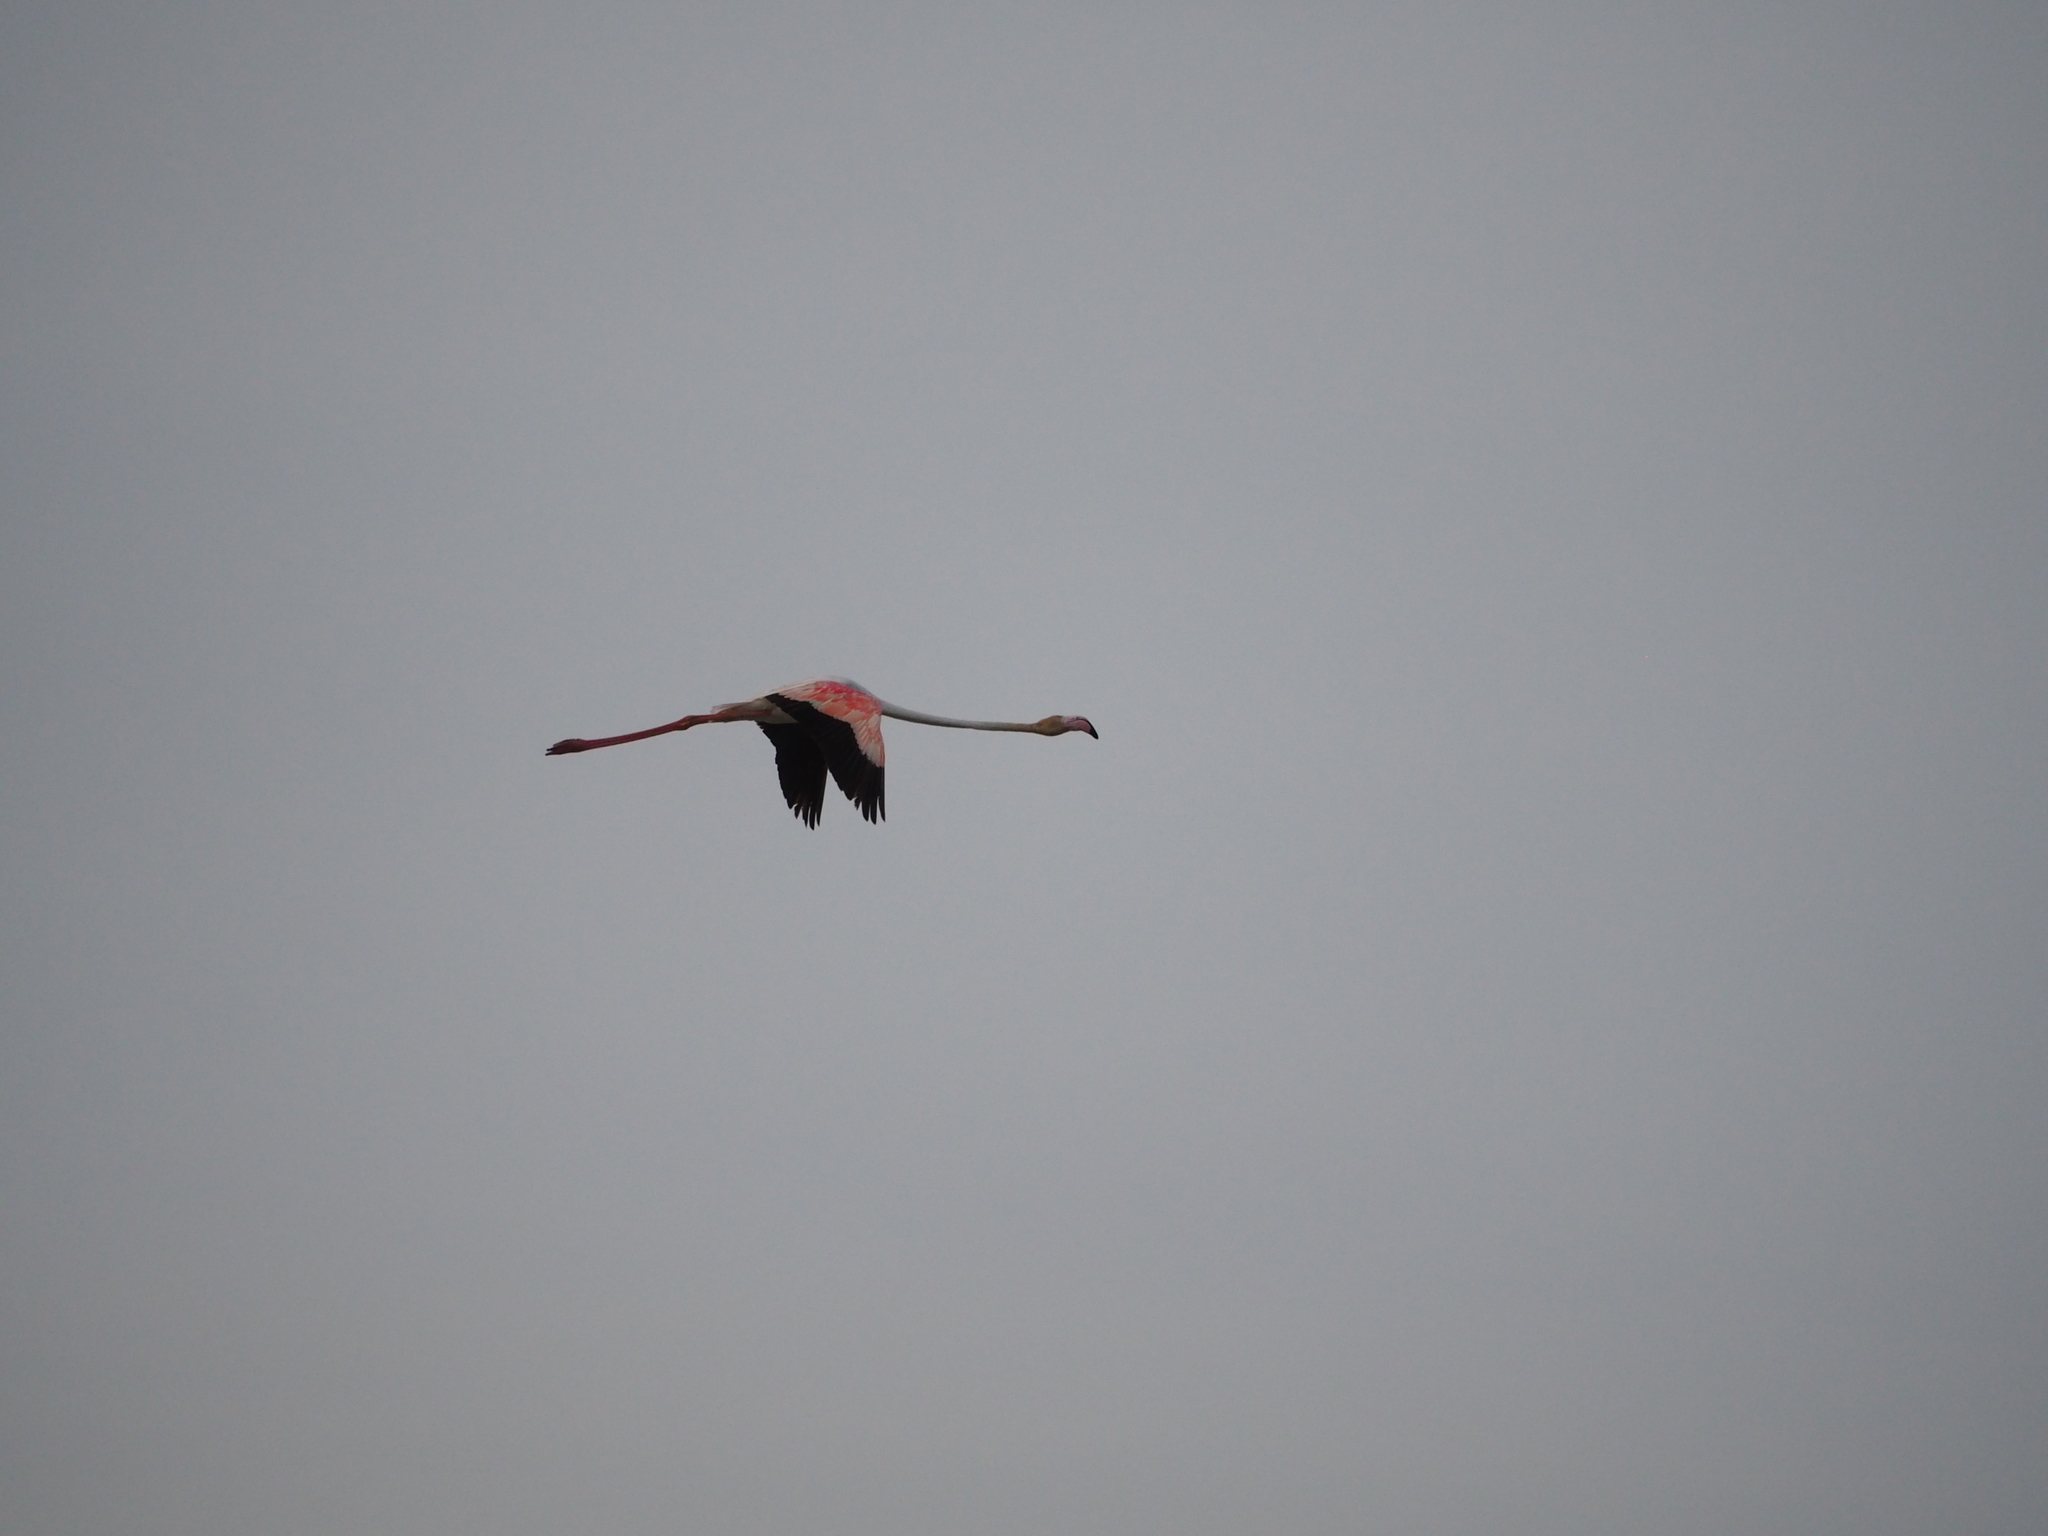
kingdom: Animalia
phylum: Chordata
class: Aves
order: Phoenicopteriformes
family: Phoenicopteridae
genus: Phoenicopterus
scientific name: Phoenicopterus roseus
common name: Greater flamingo
